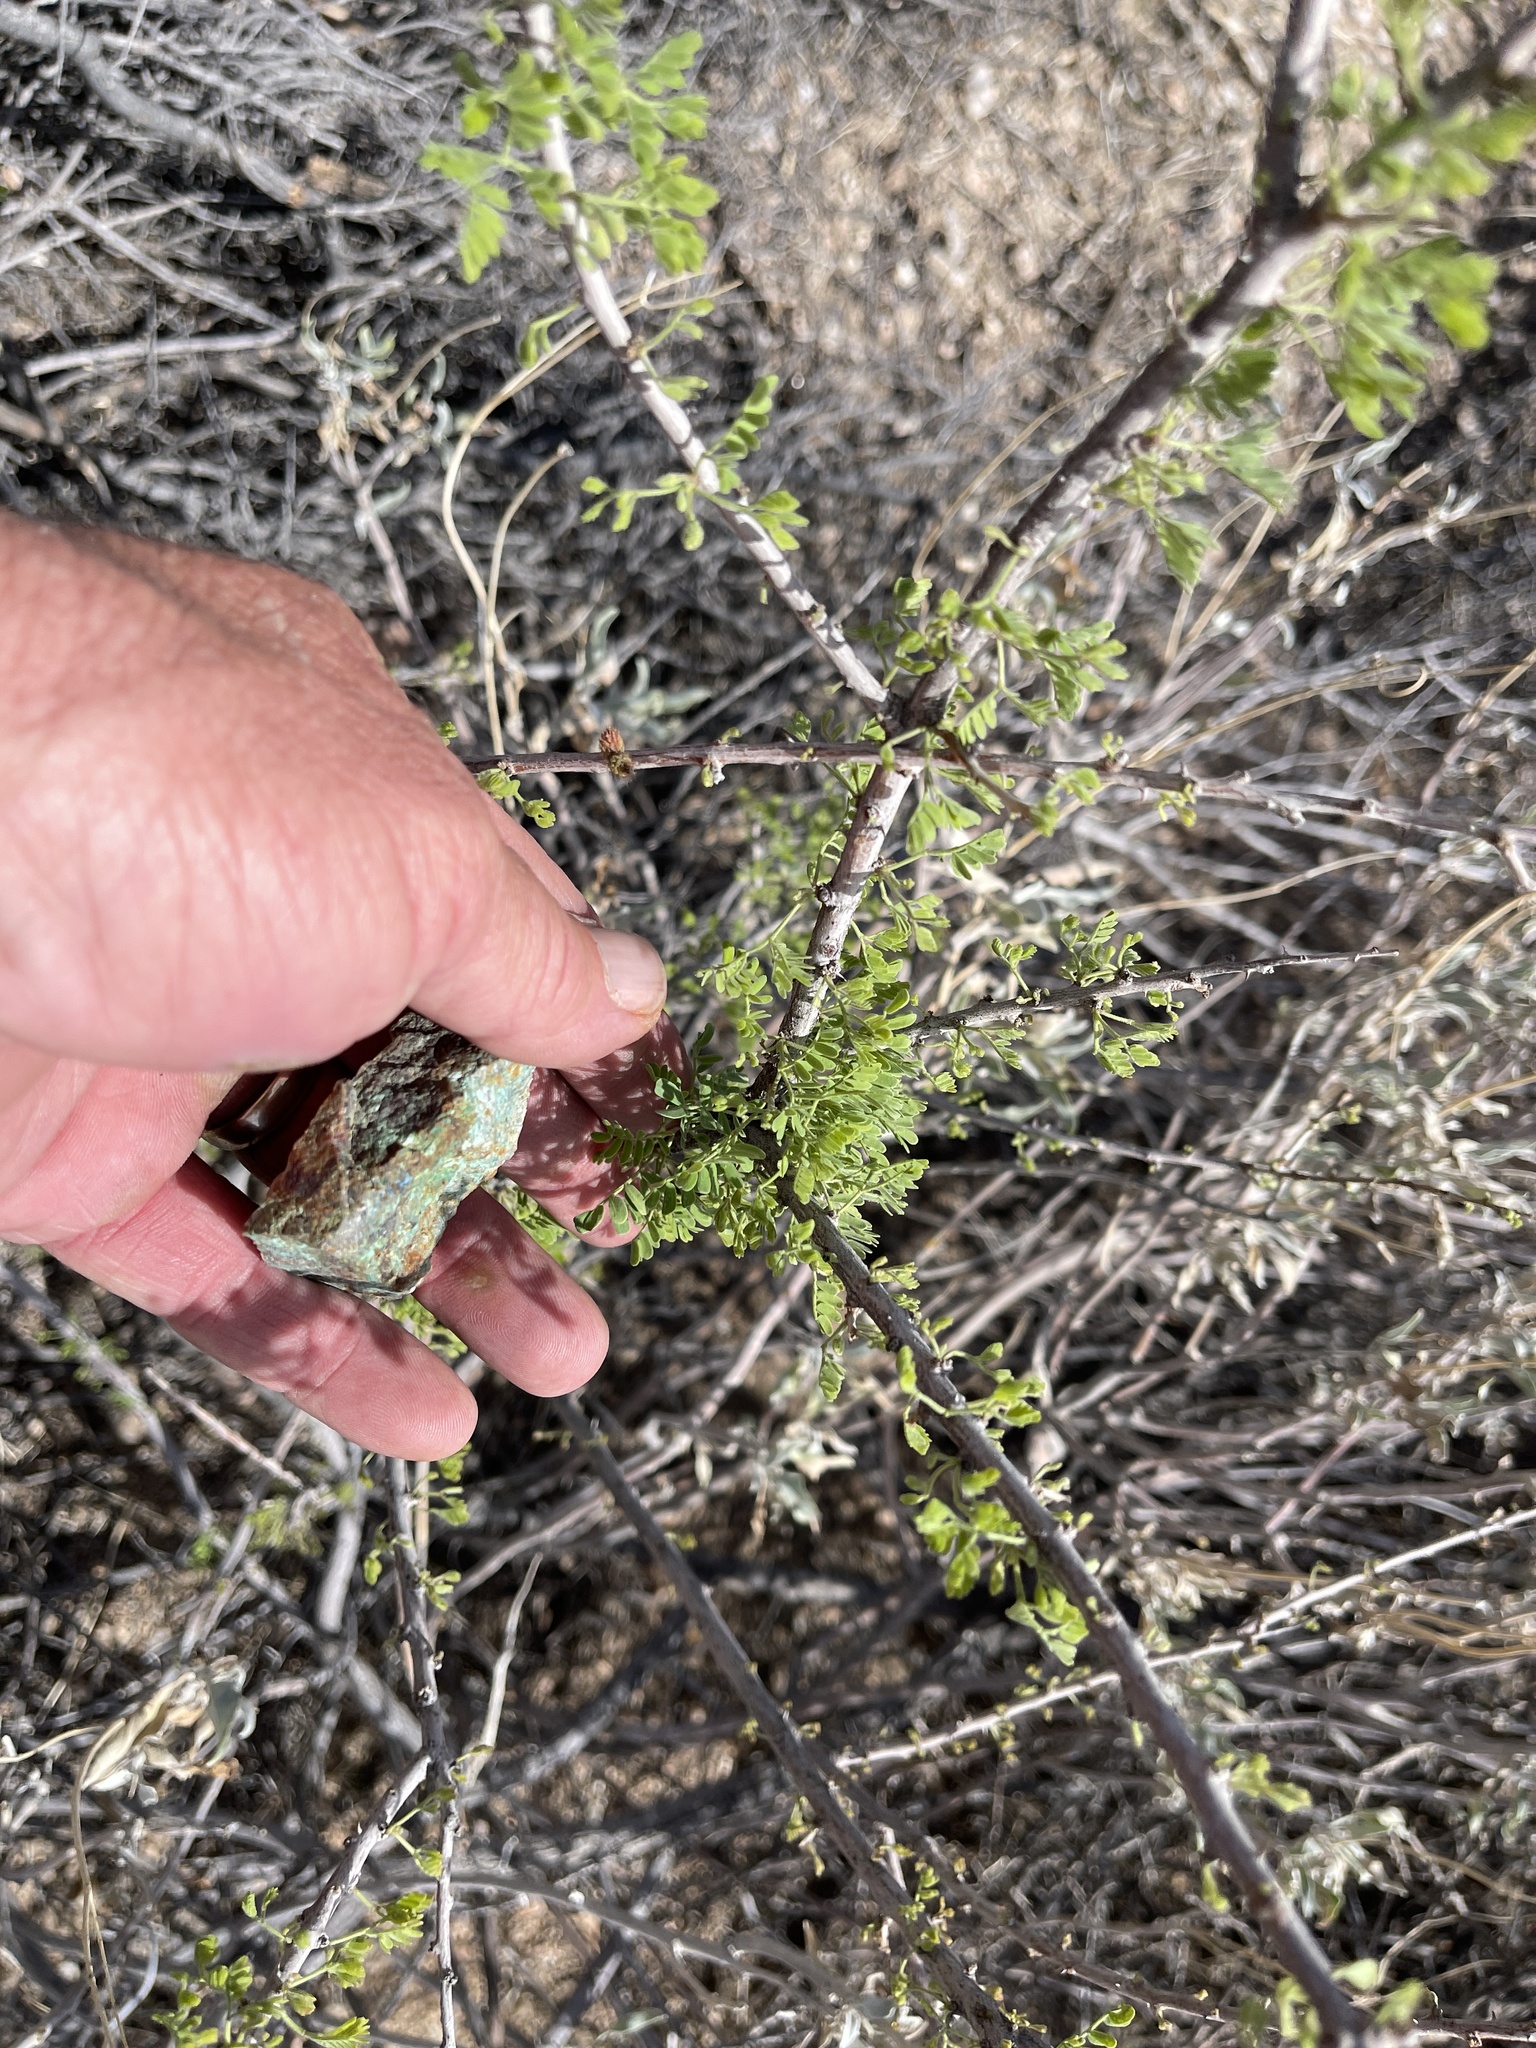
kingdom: Plantae
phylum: Tracheophyta
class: Magnoliopsida
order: Fabales
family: Fabaceae
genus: Senegalia
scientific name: Senegalia greggii
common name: Texas-mimosa
